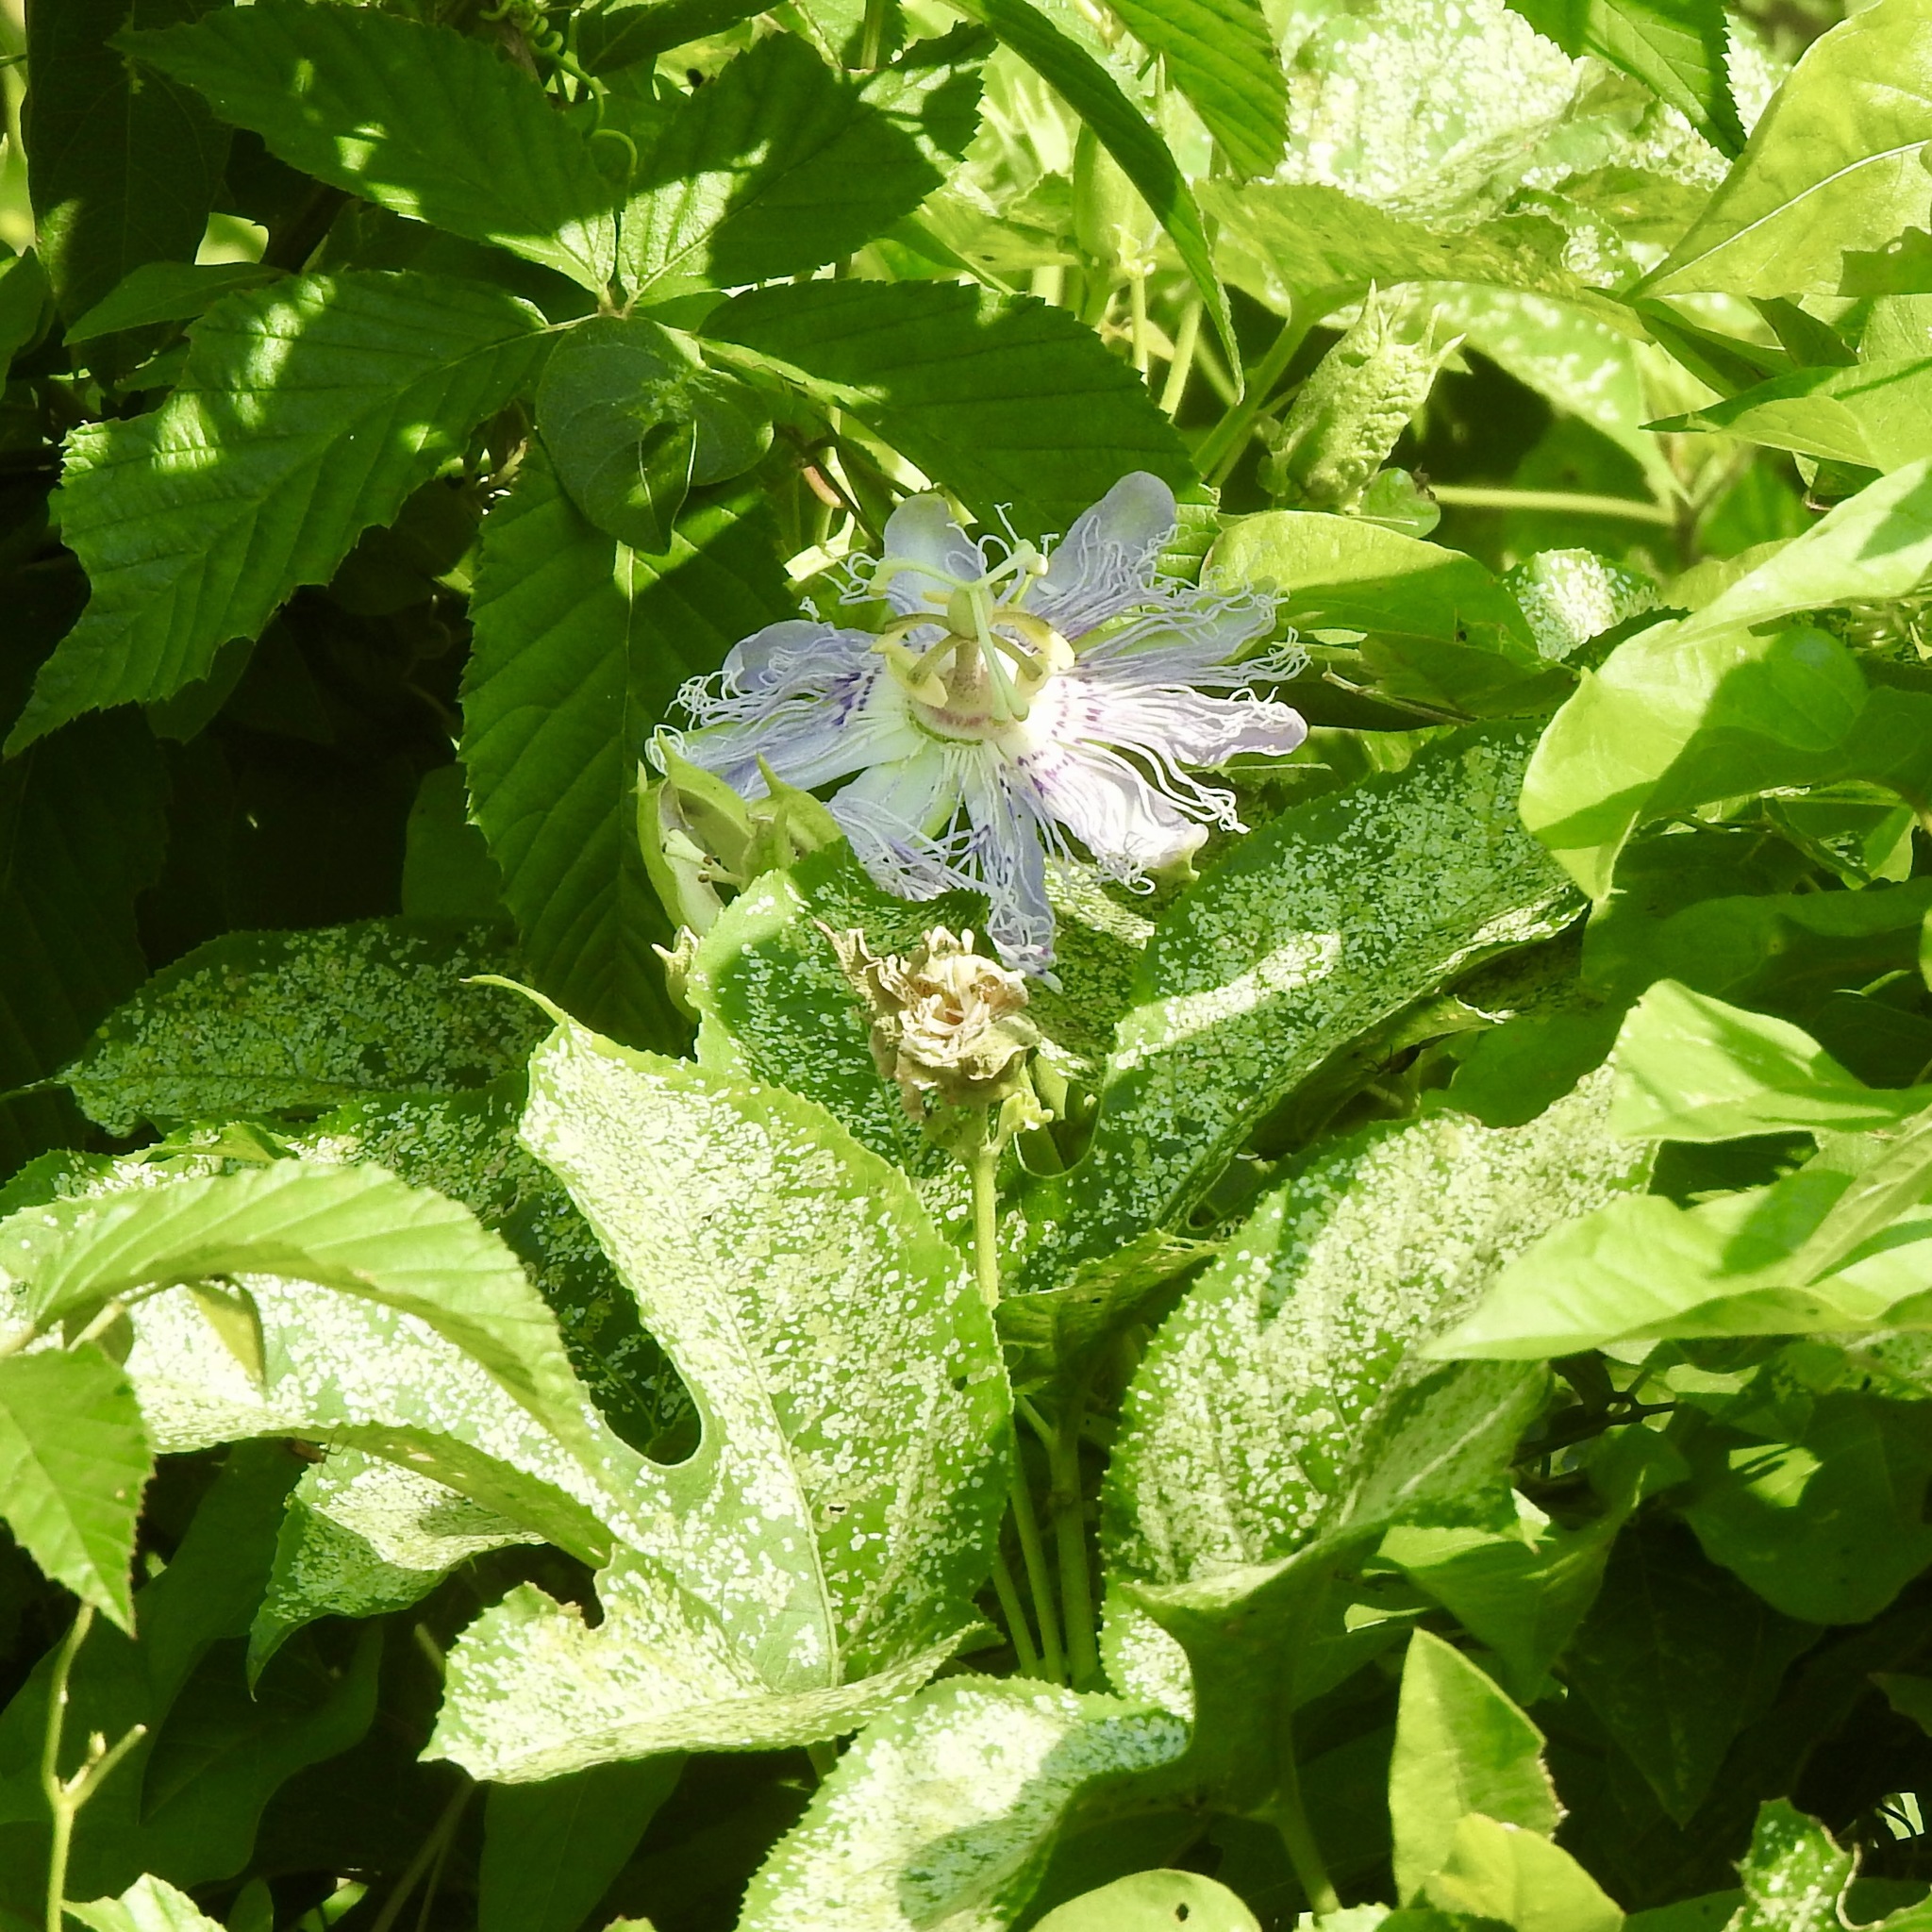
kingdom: Plantae
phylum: Tracheophyta
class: Magnoliopsida
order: Malpighiales
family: Passifloraceae
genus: Passiflora
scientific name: Passiflora incarnata
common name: Apricot-vine
